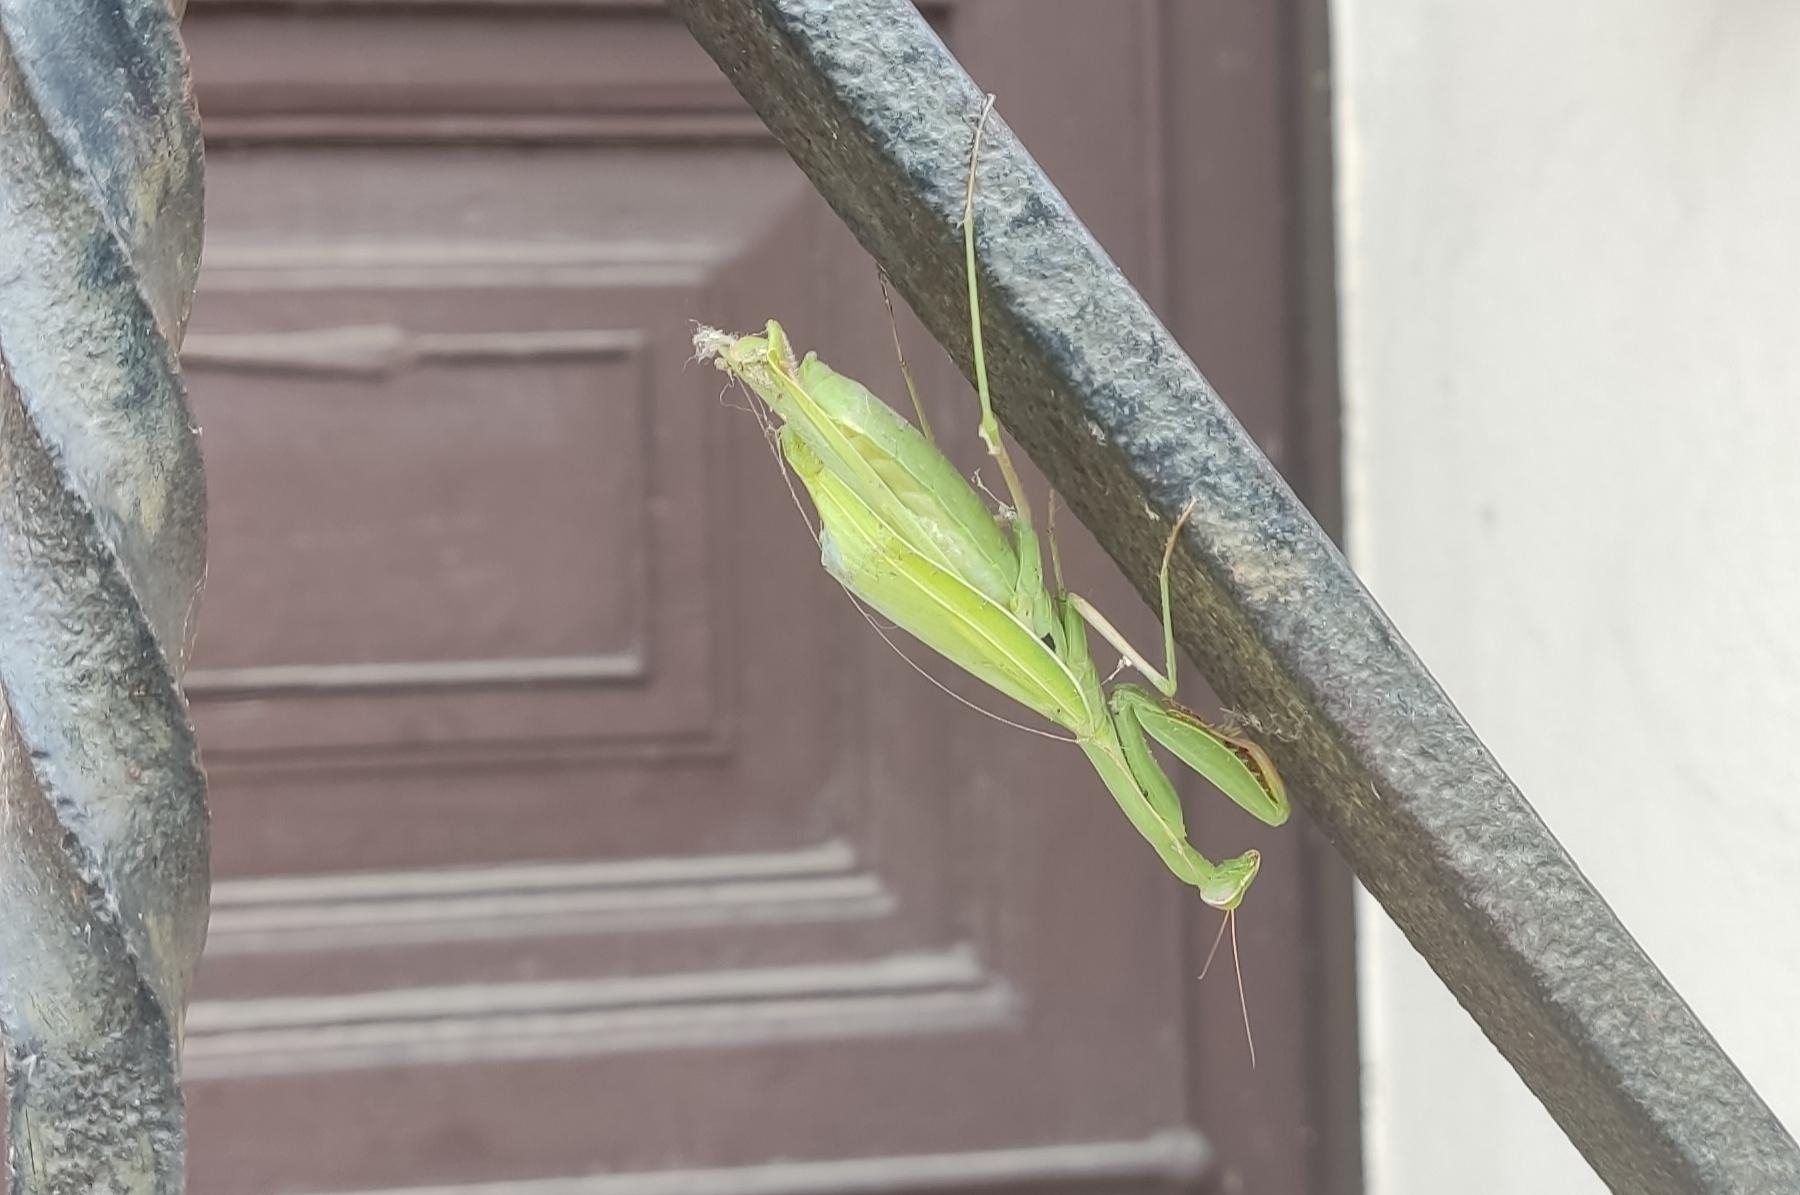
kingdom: Animalia
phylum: Arthropoda
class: Insecta
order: Mantodea
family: Mantidae
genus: Mantis
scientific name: Mantis religiosa
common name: Praying mantis
